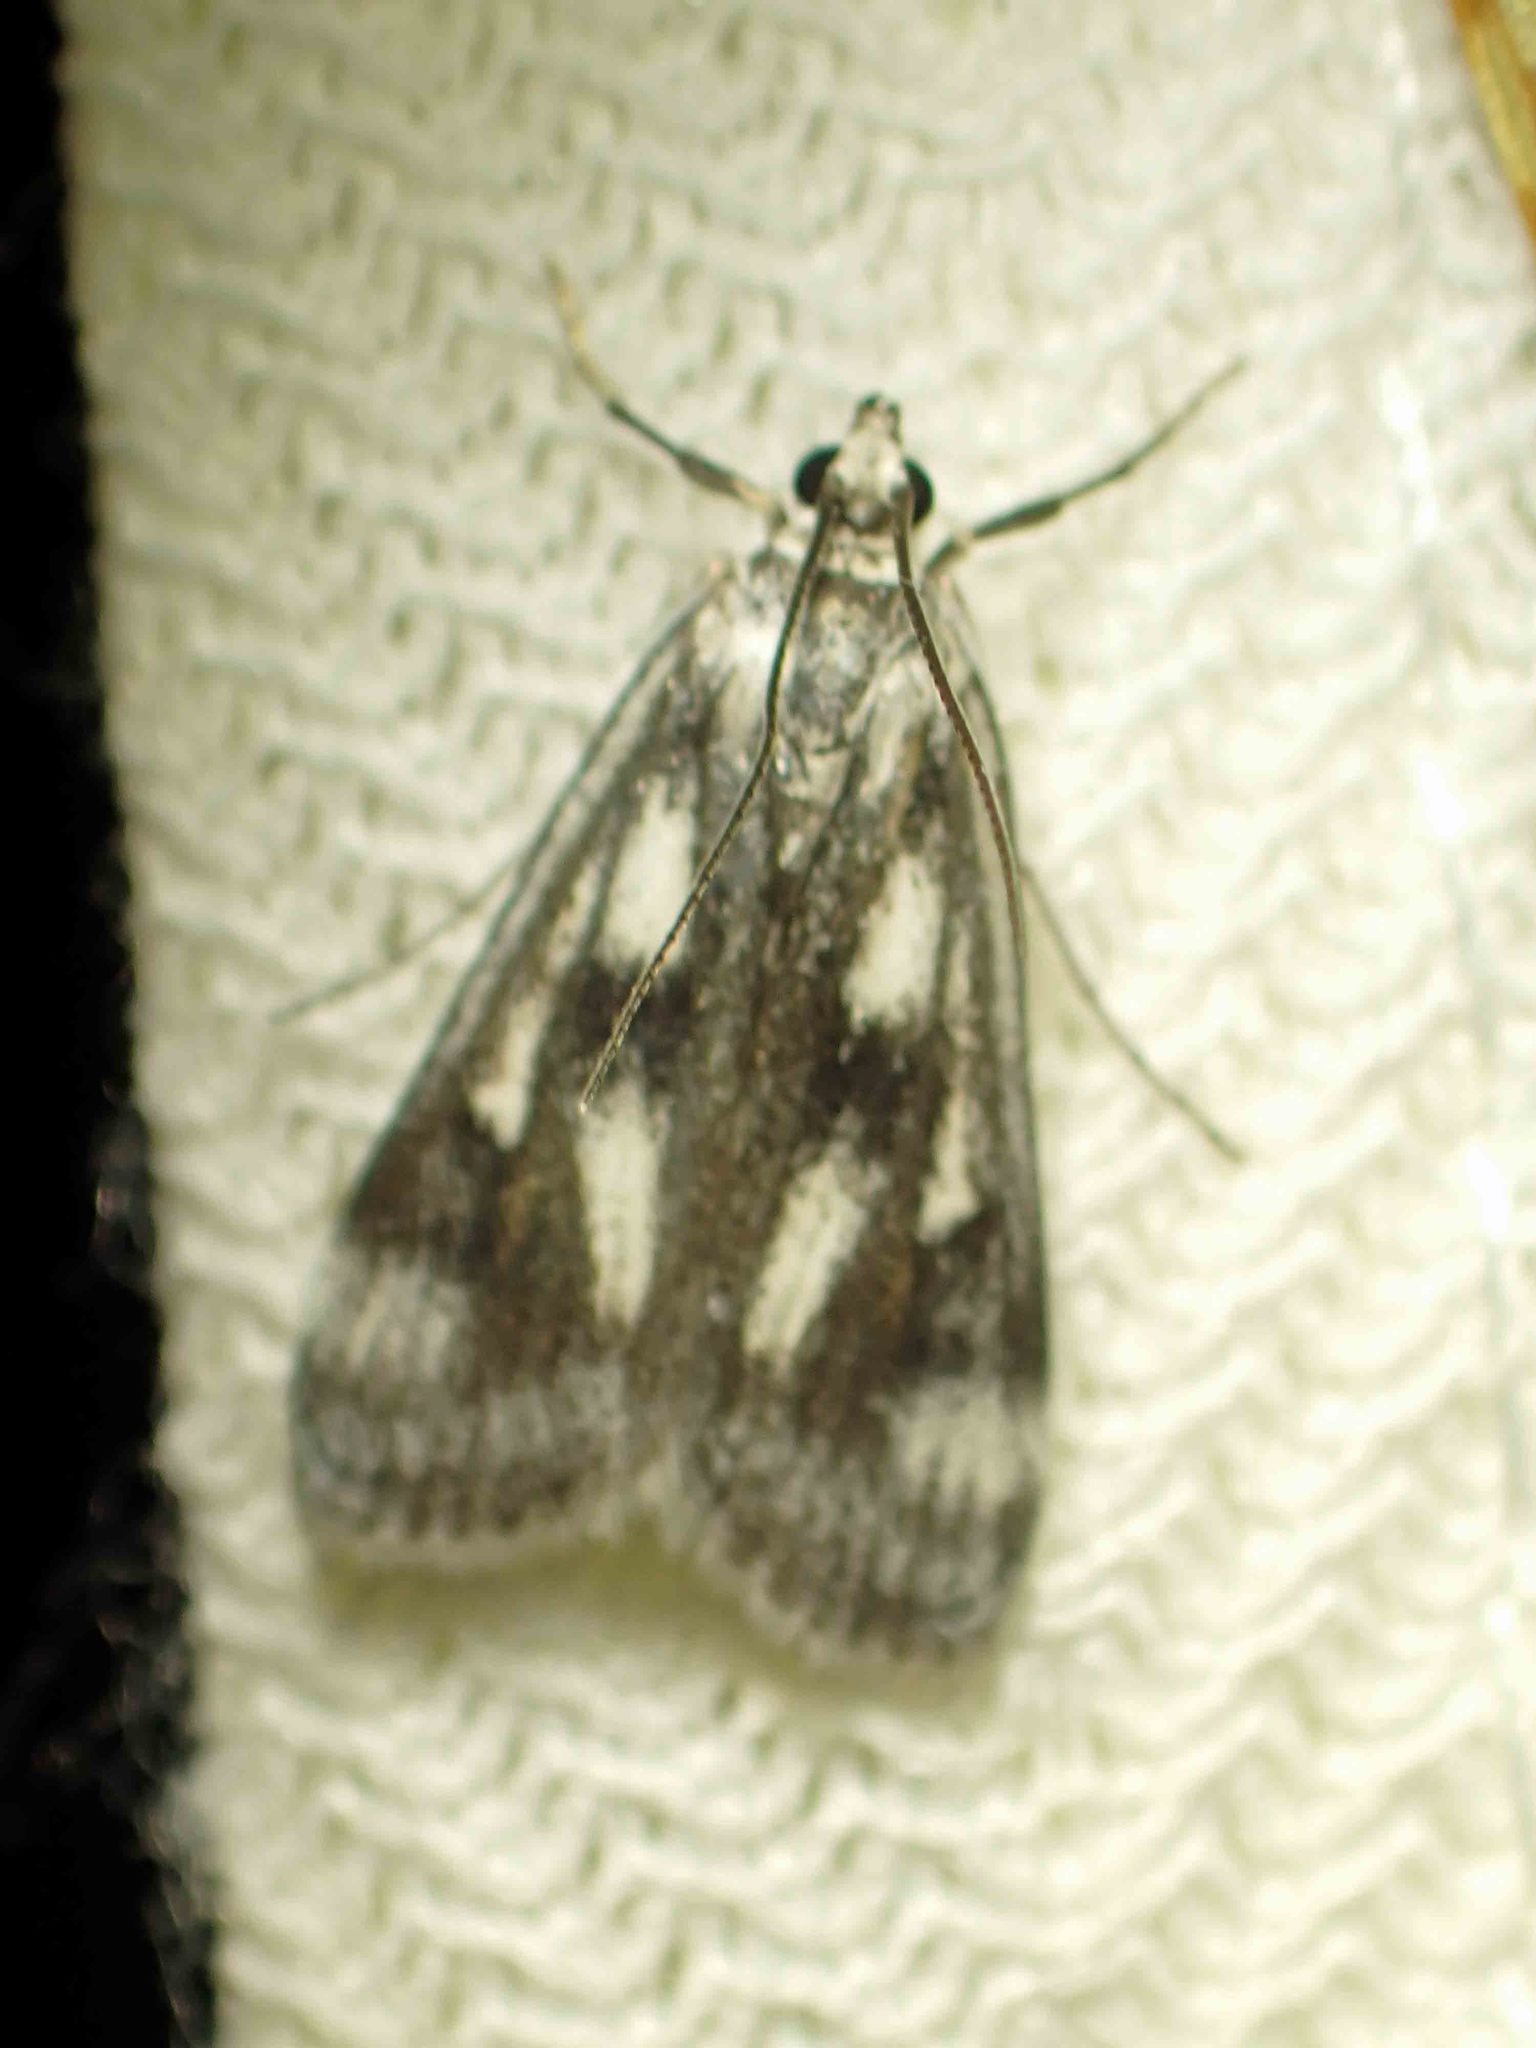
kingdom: Animalia
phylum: Arthropoda
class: Insecta
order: Lepidoptera
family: Crambidae
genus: Parapoynx
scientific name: Parapoynx maculalis
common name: Polymorphic pondweed moth
